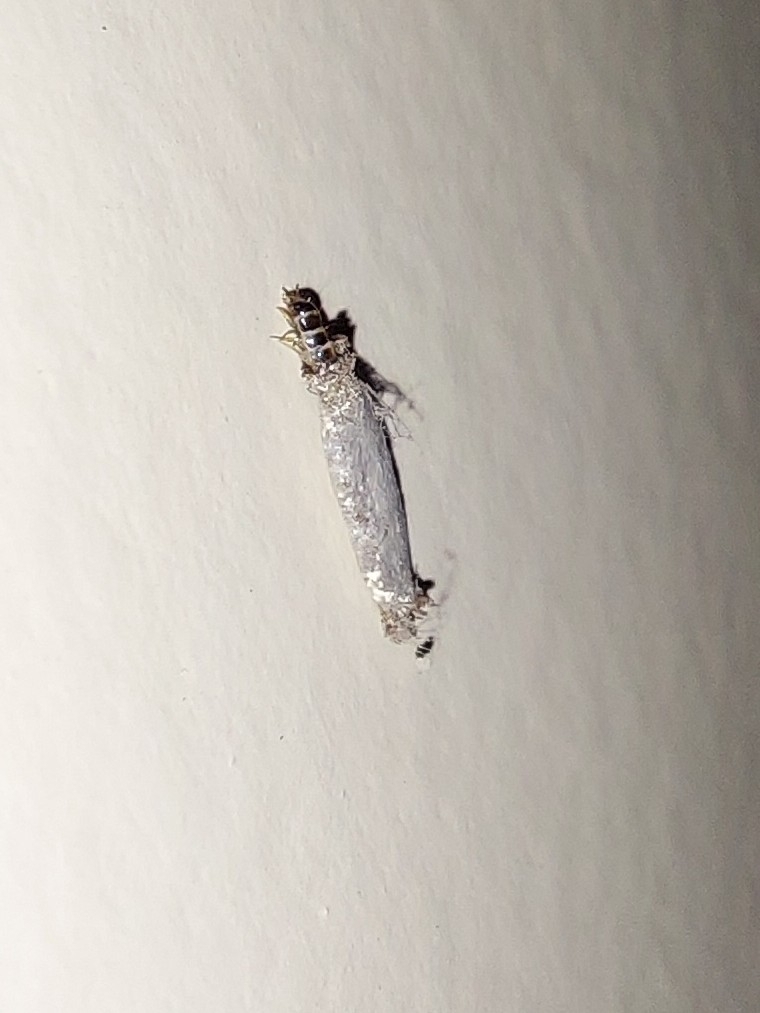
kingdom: Animalia
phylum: Arthropoda
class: Insecta
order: Lepidoptera
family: Tineidae
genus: Phereoeca
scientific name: Phereoeca uterella
